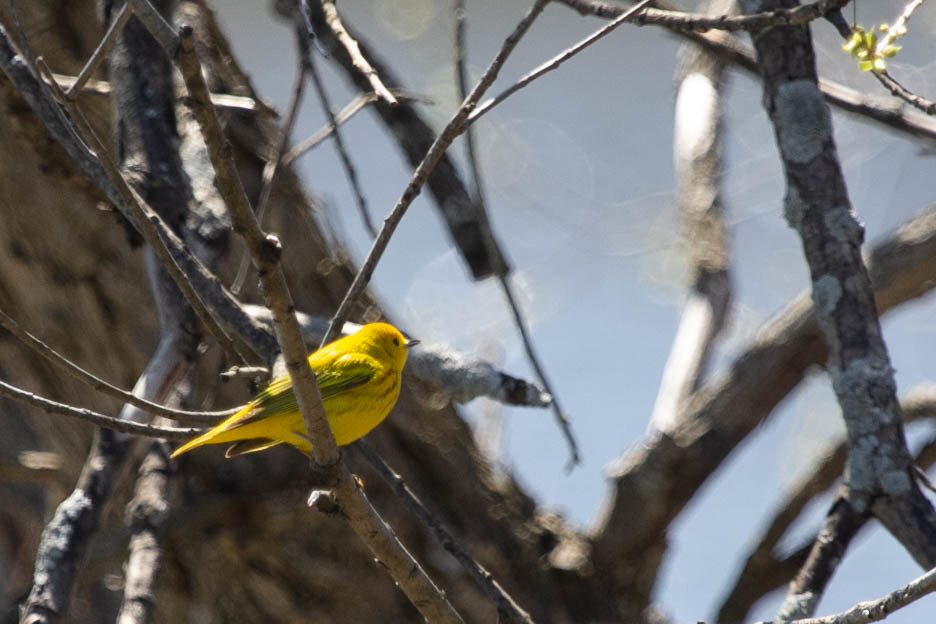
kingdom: Animalia
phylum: Chordata
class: Aves
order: Passeriformes
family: Parulidae
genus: Setophaga
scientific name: Setophaga petechia
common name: Yellow warbler
